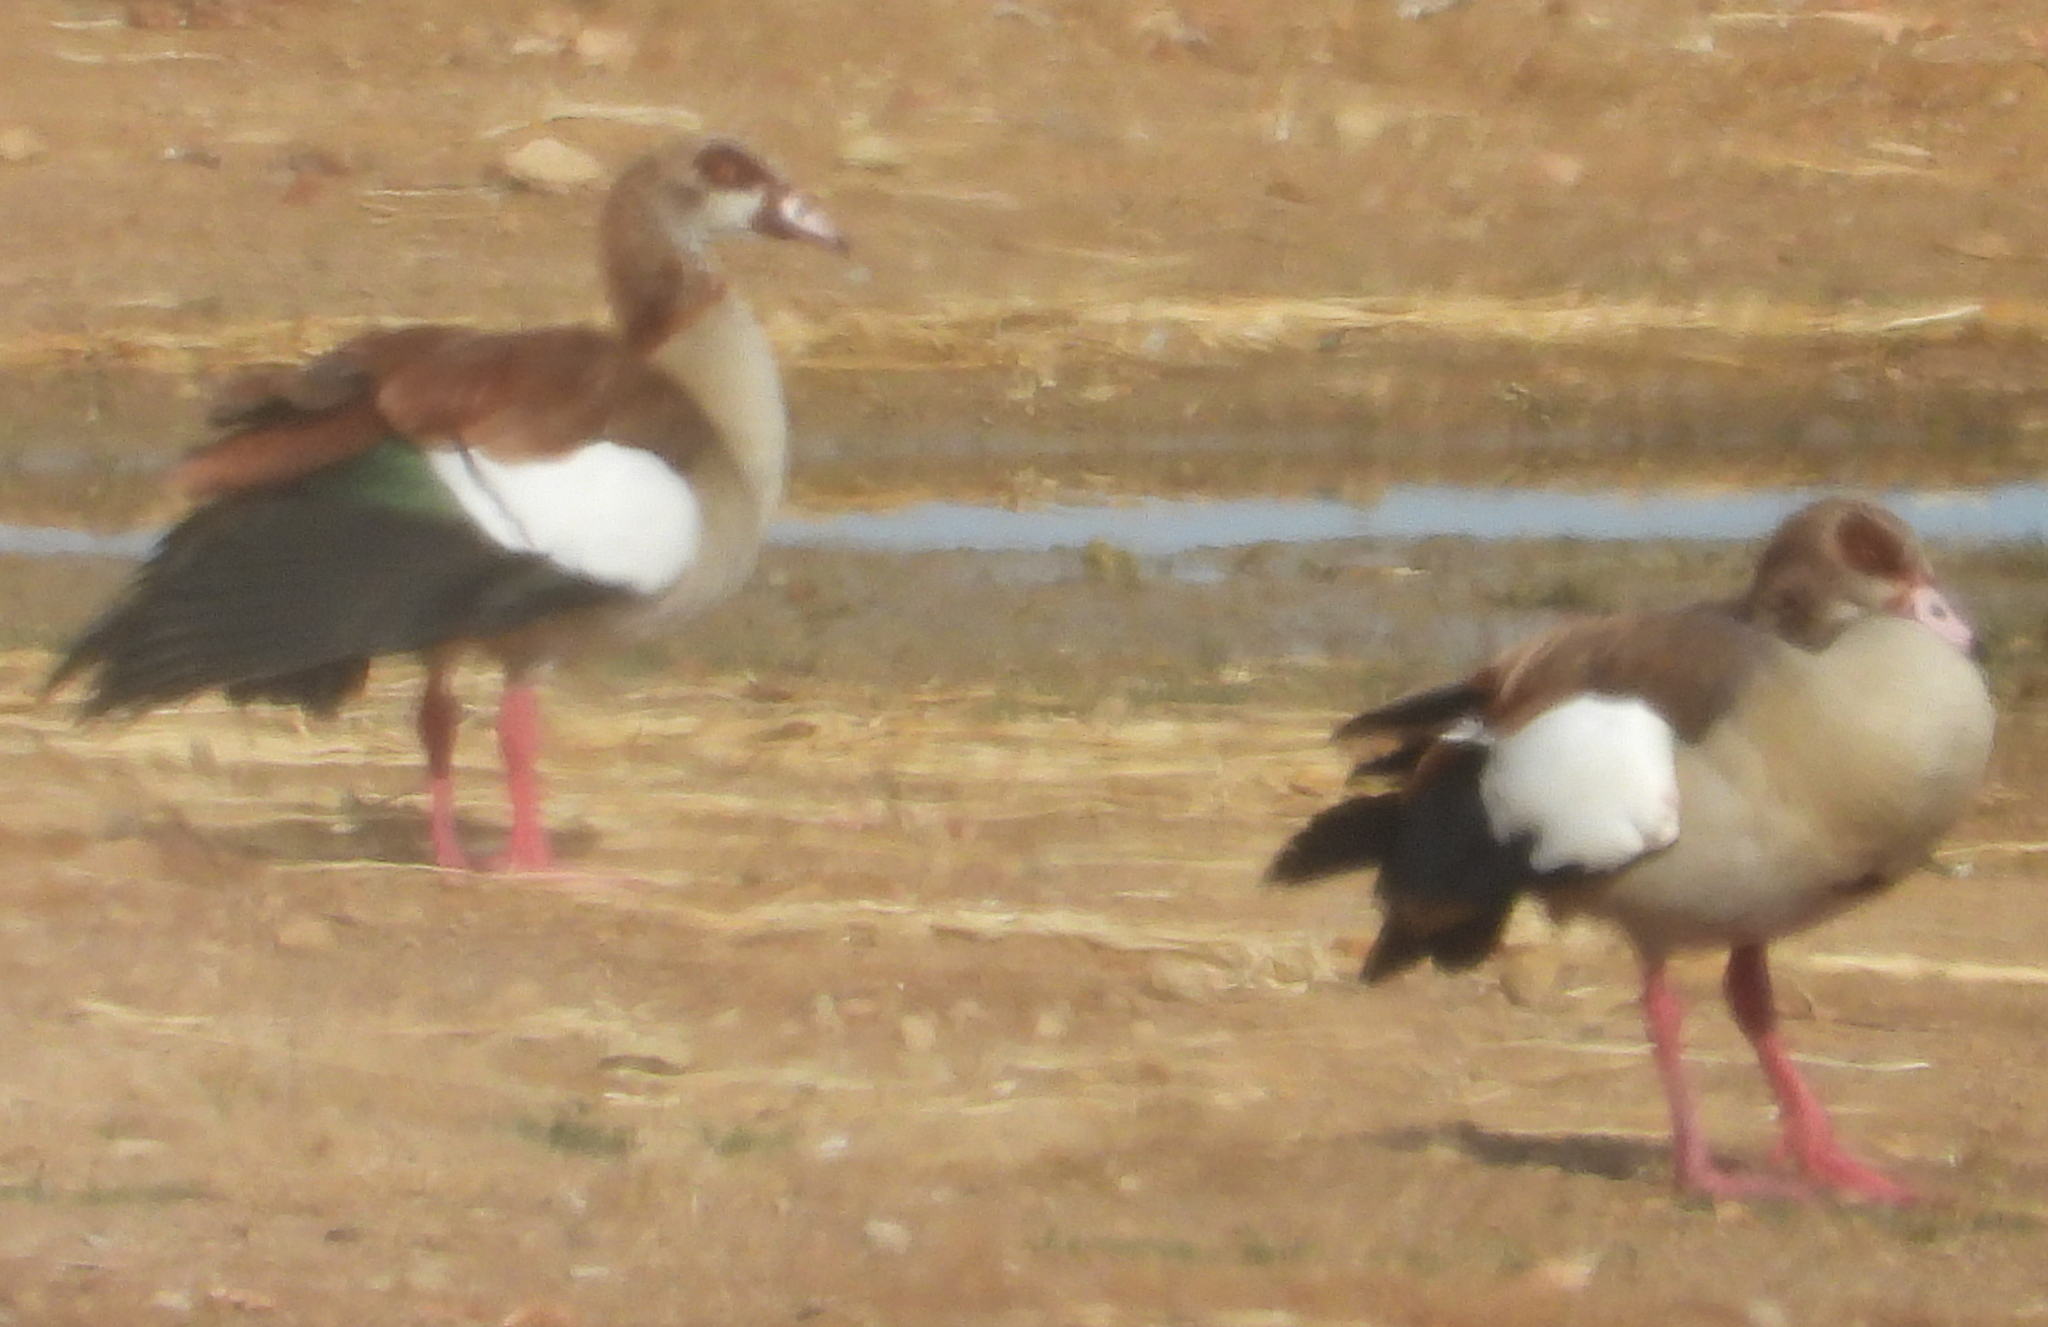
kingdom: Animalia
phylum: Chordata
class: Aves
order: Anseriformes
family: Anatidae
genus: Alopochen
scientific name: Alopochen aegyptiaca
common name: Egyptian goose
